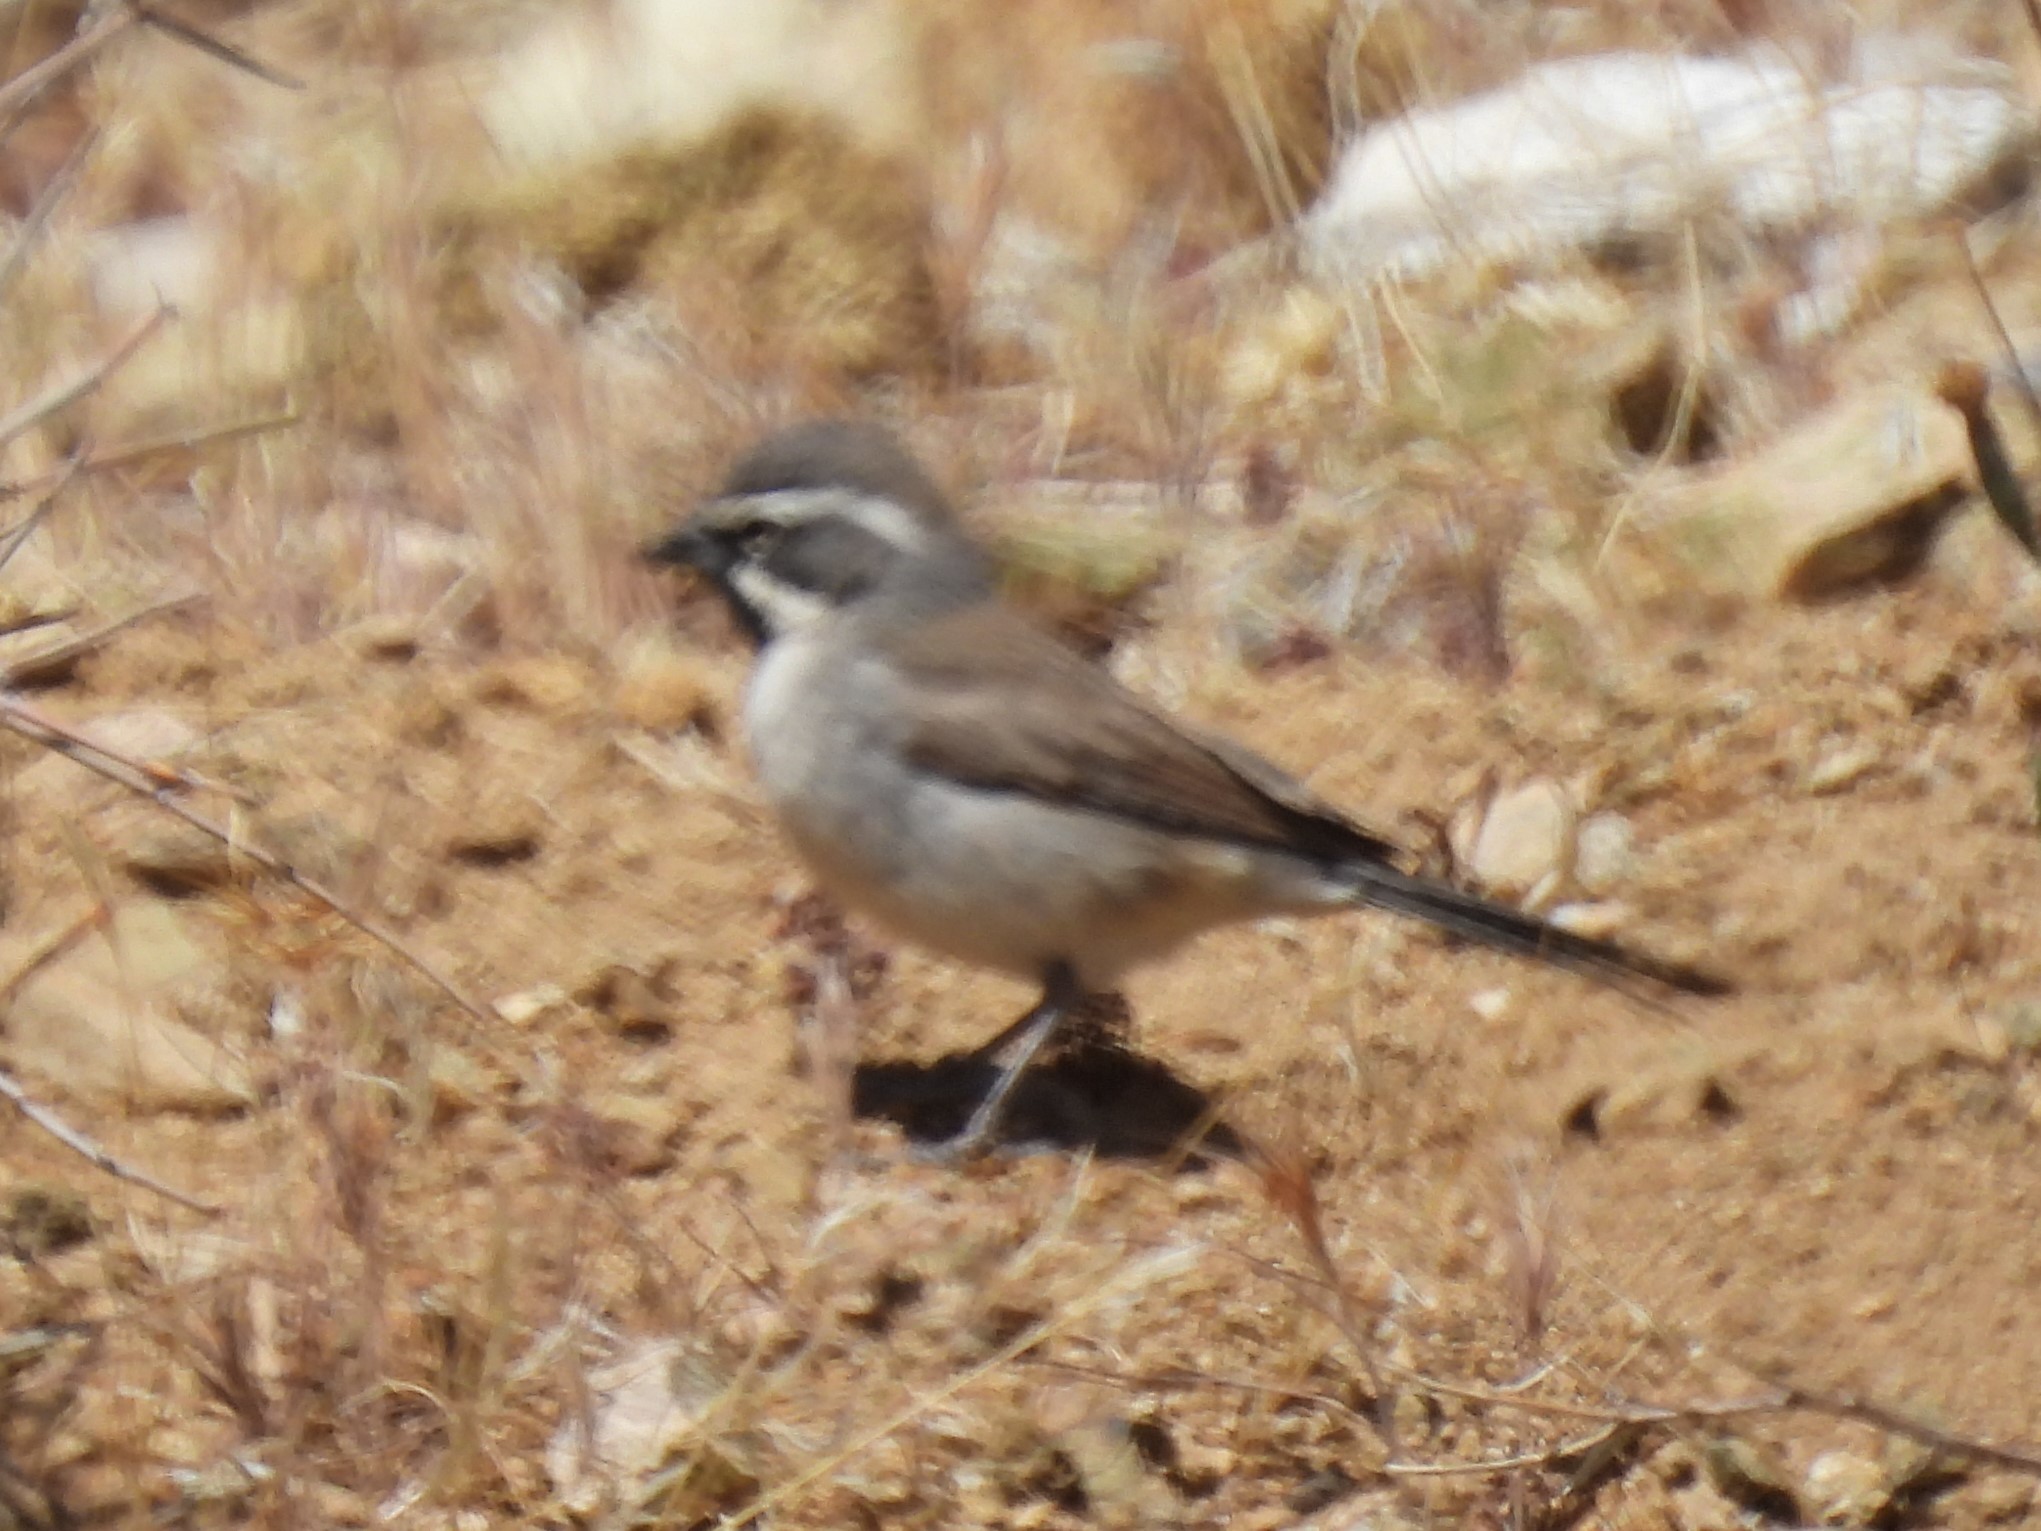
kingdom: Animalia
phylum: Chordata
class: Aves
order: Passeriformes
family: Passerellidae
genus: Amphispiza
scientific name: Amphispiza bilineata
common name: Black-throated sparrow
